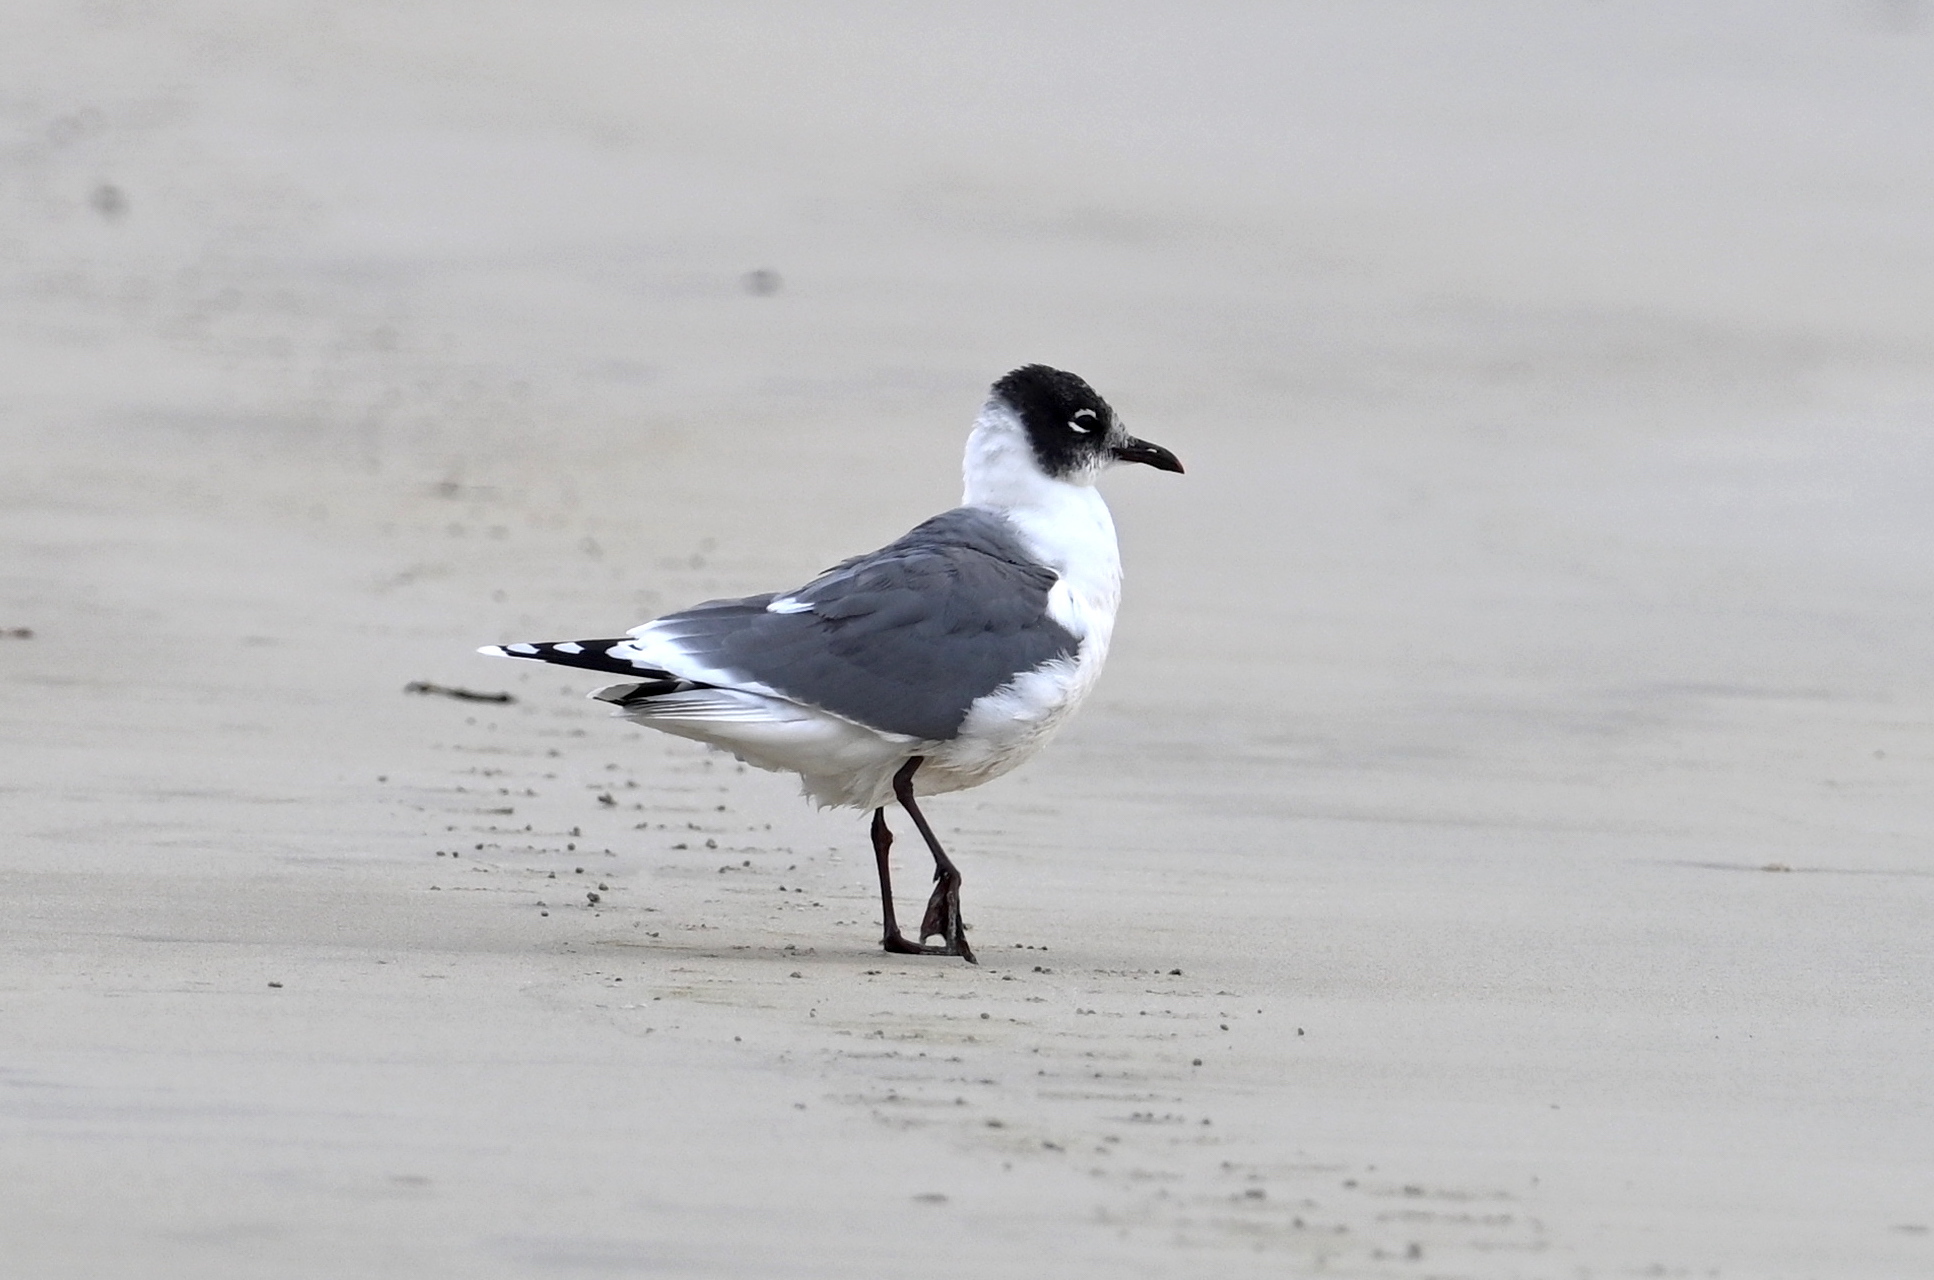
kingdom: Animalia
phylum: Chordata
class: Aves
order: Charadriiformes
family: Laridae
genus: Leucophaeus
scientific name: Leucophaeus pipixcan
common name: Franklin's gull
